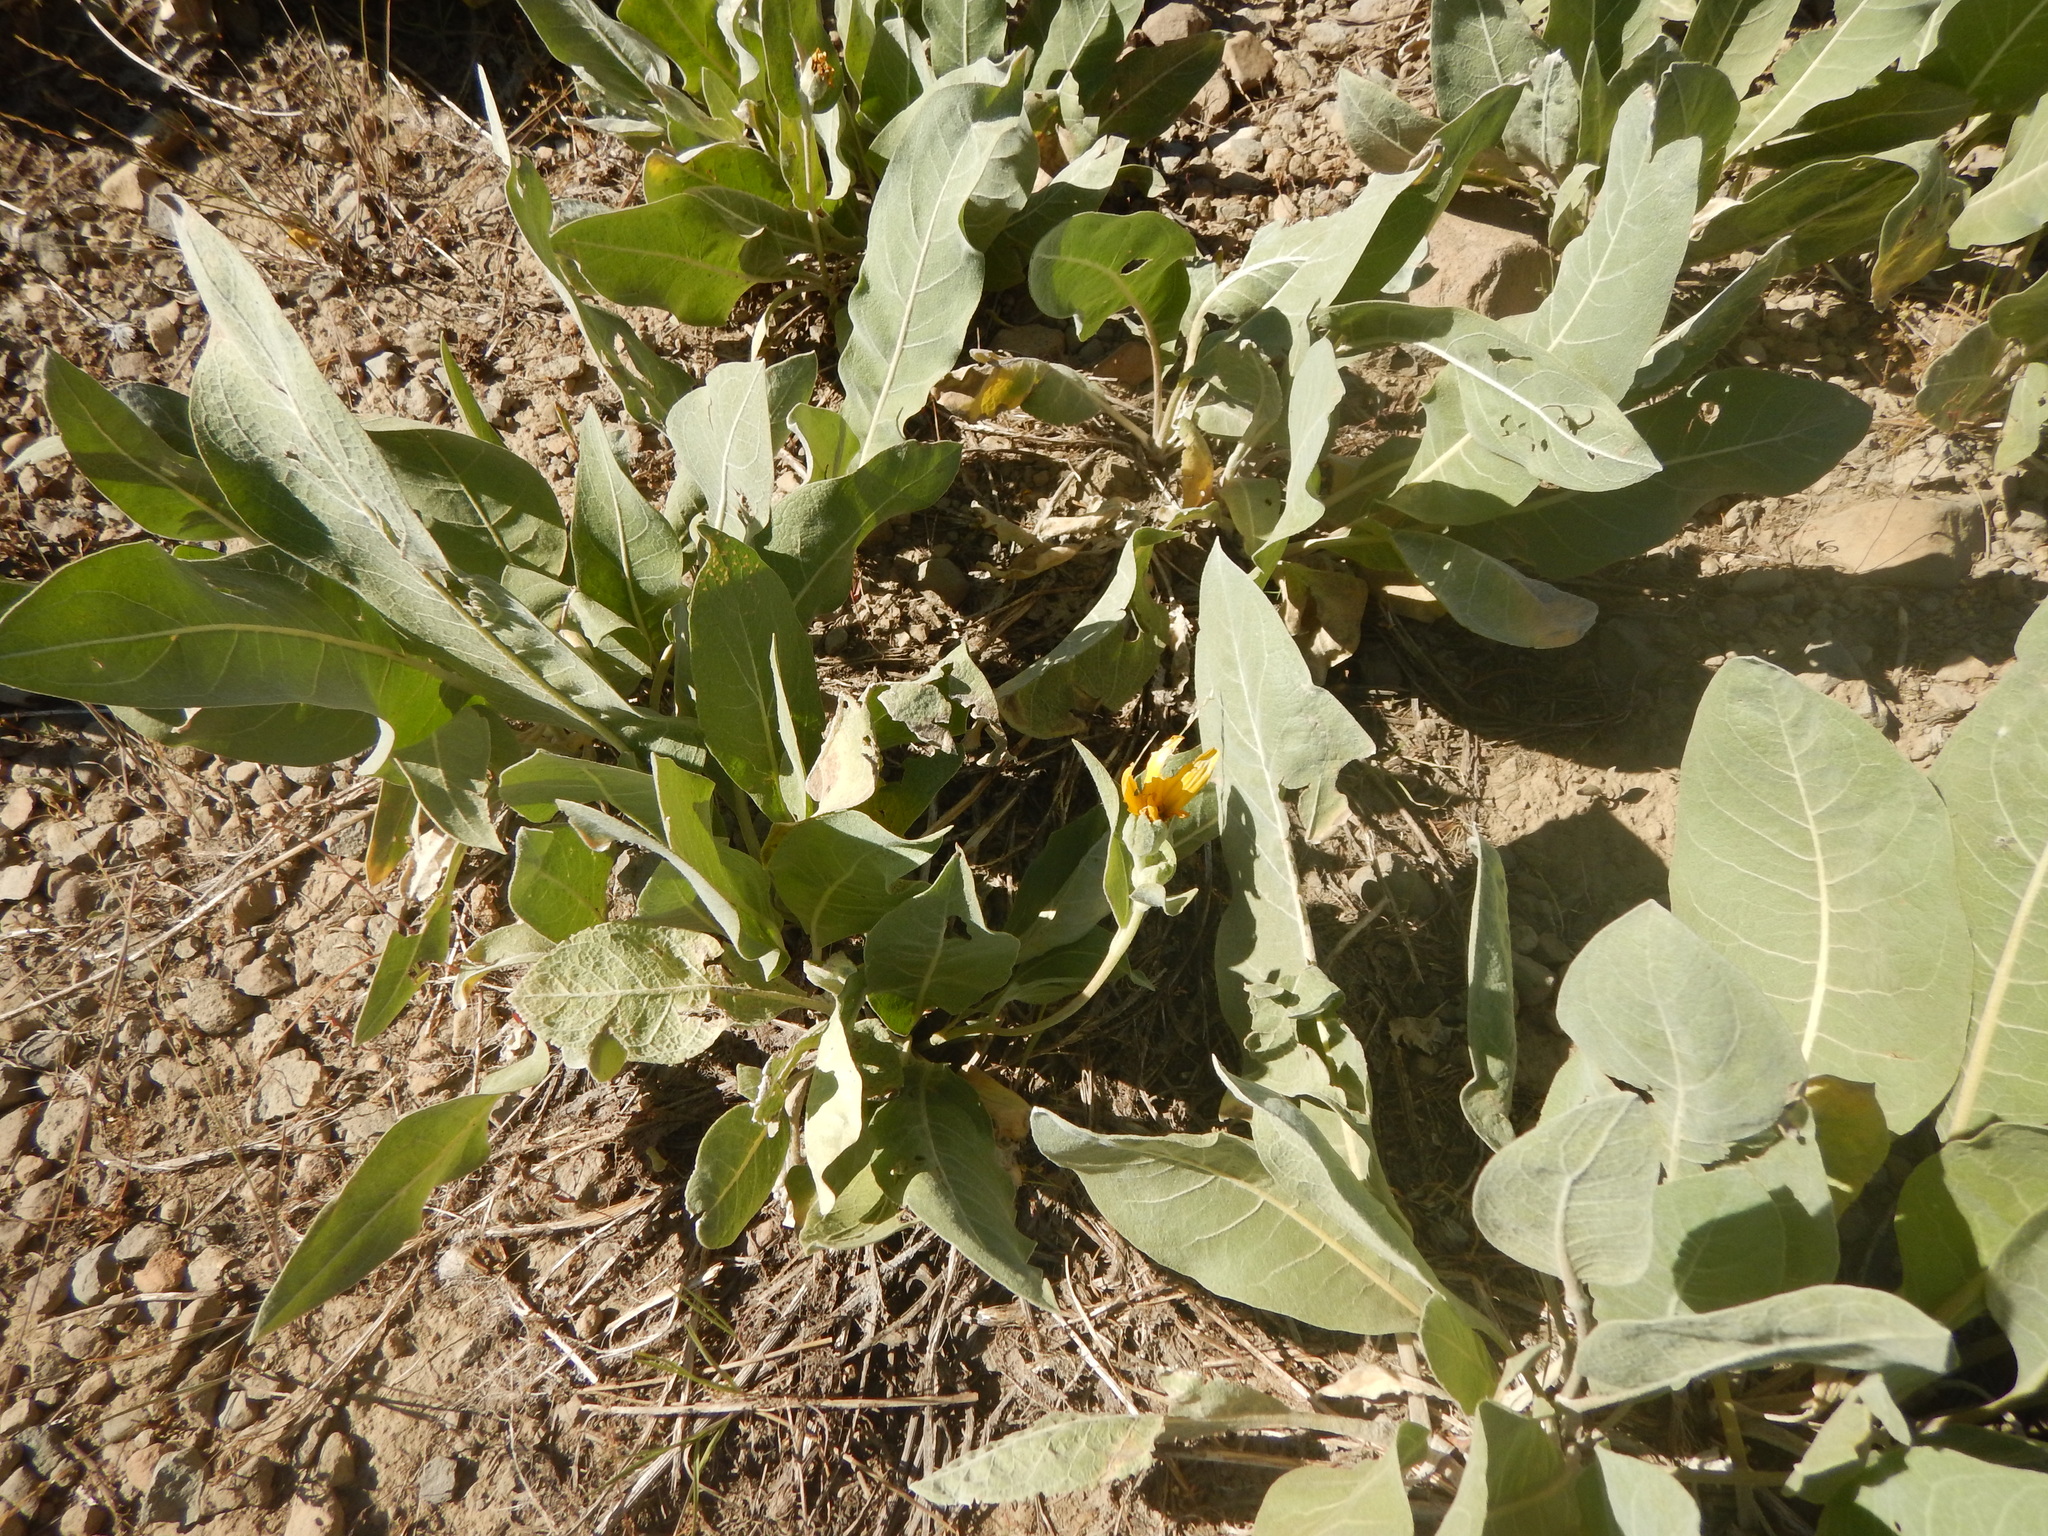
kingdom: Plantae
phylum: Tracheophyta
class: Magnoliopsida
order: Asterales
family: Asteraceae
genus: Wyethia
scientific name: Wyethia mollis
